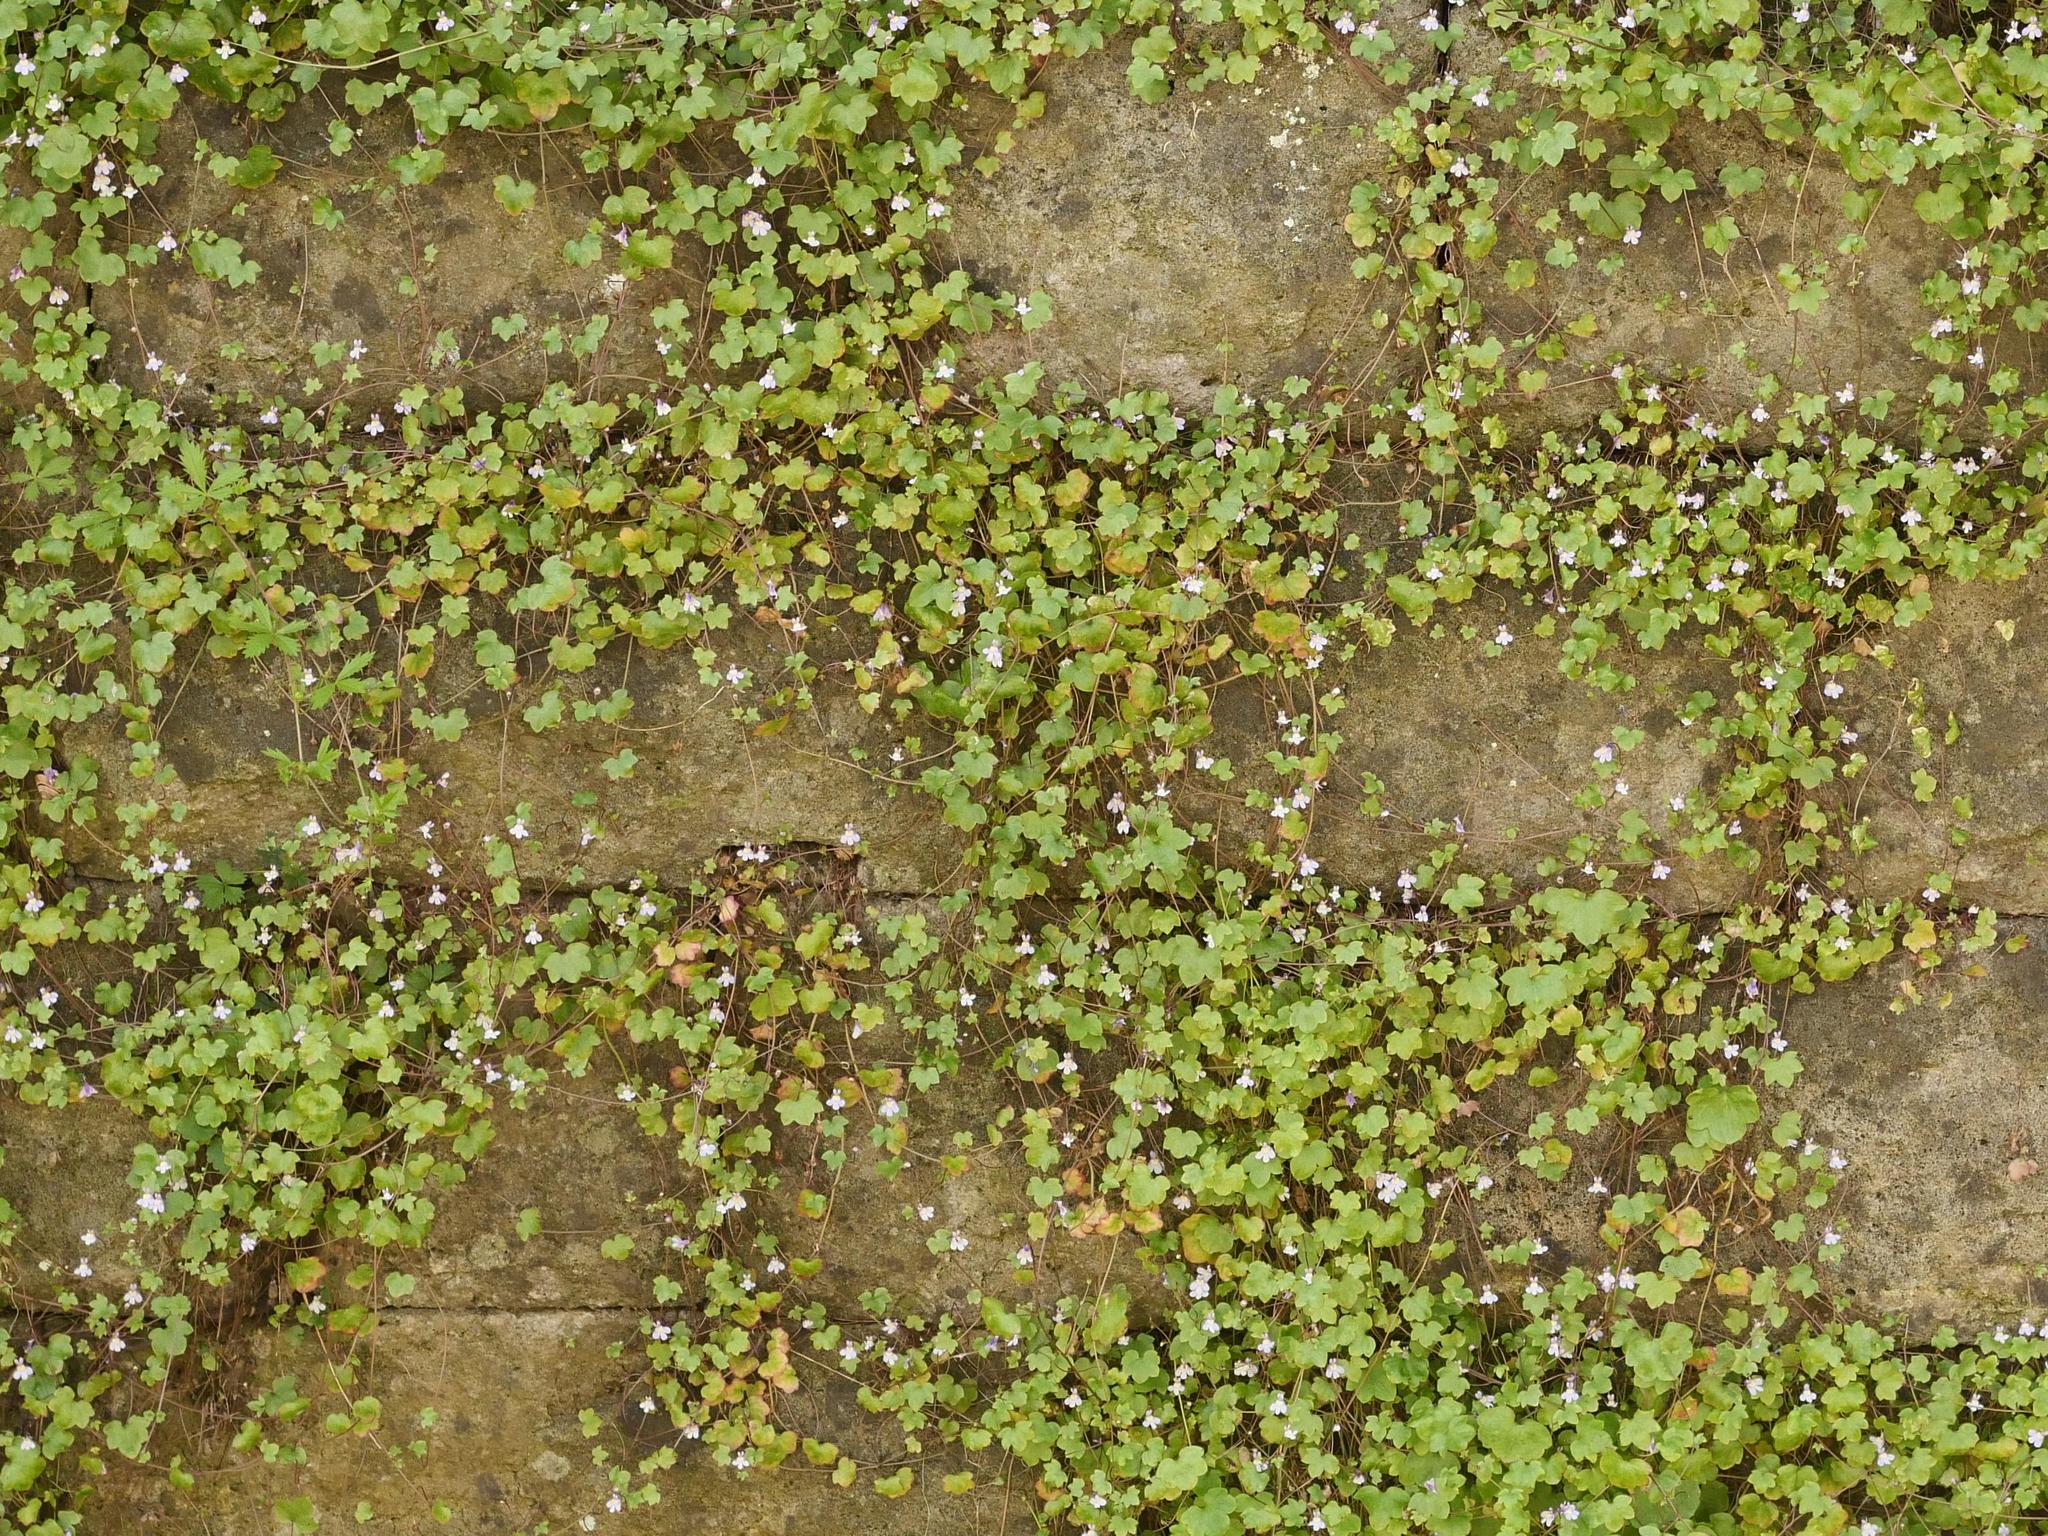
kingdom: Plantae
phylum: Tracheophyta
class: Magnoliopsida
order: Lamiales
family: Plantaginaceae
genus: Cymbalaria
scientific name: Cymbalaria muralis
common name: Ivy-leaved toadflax
